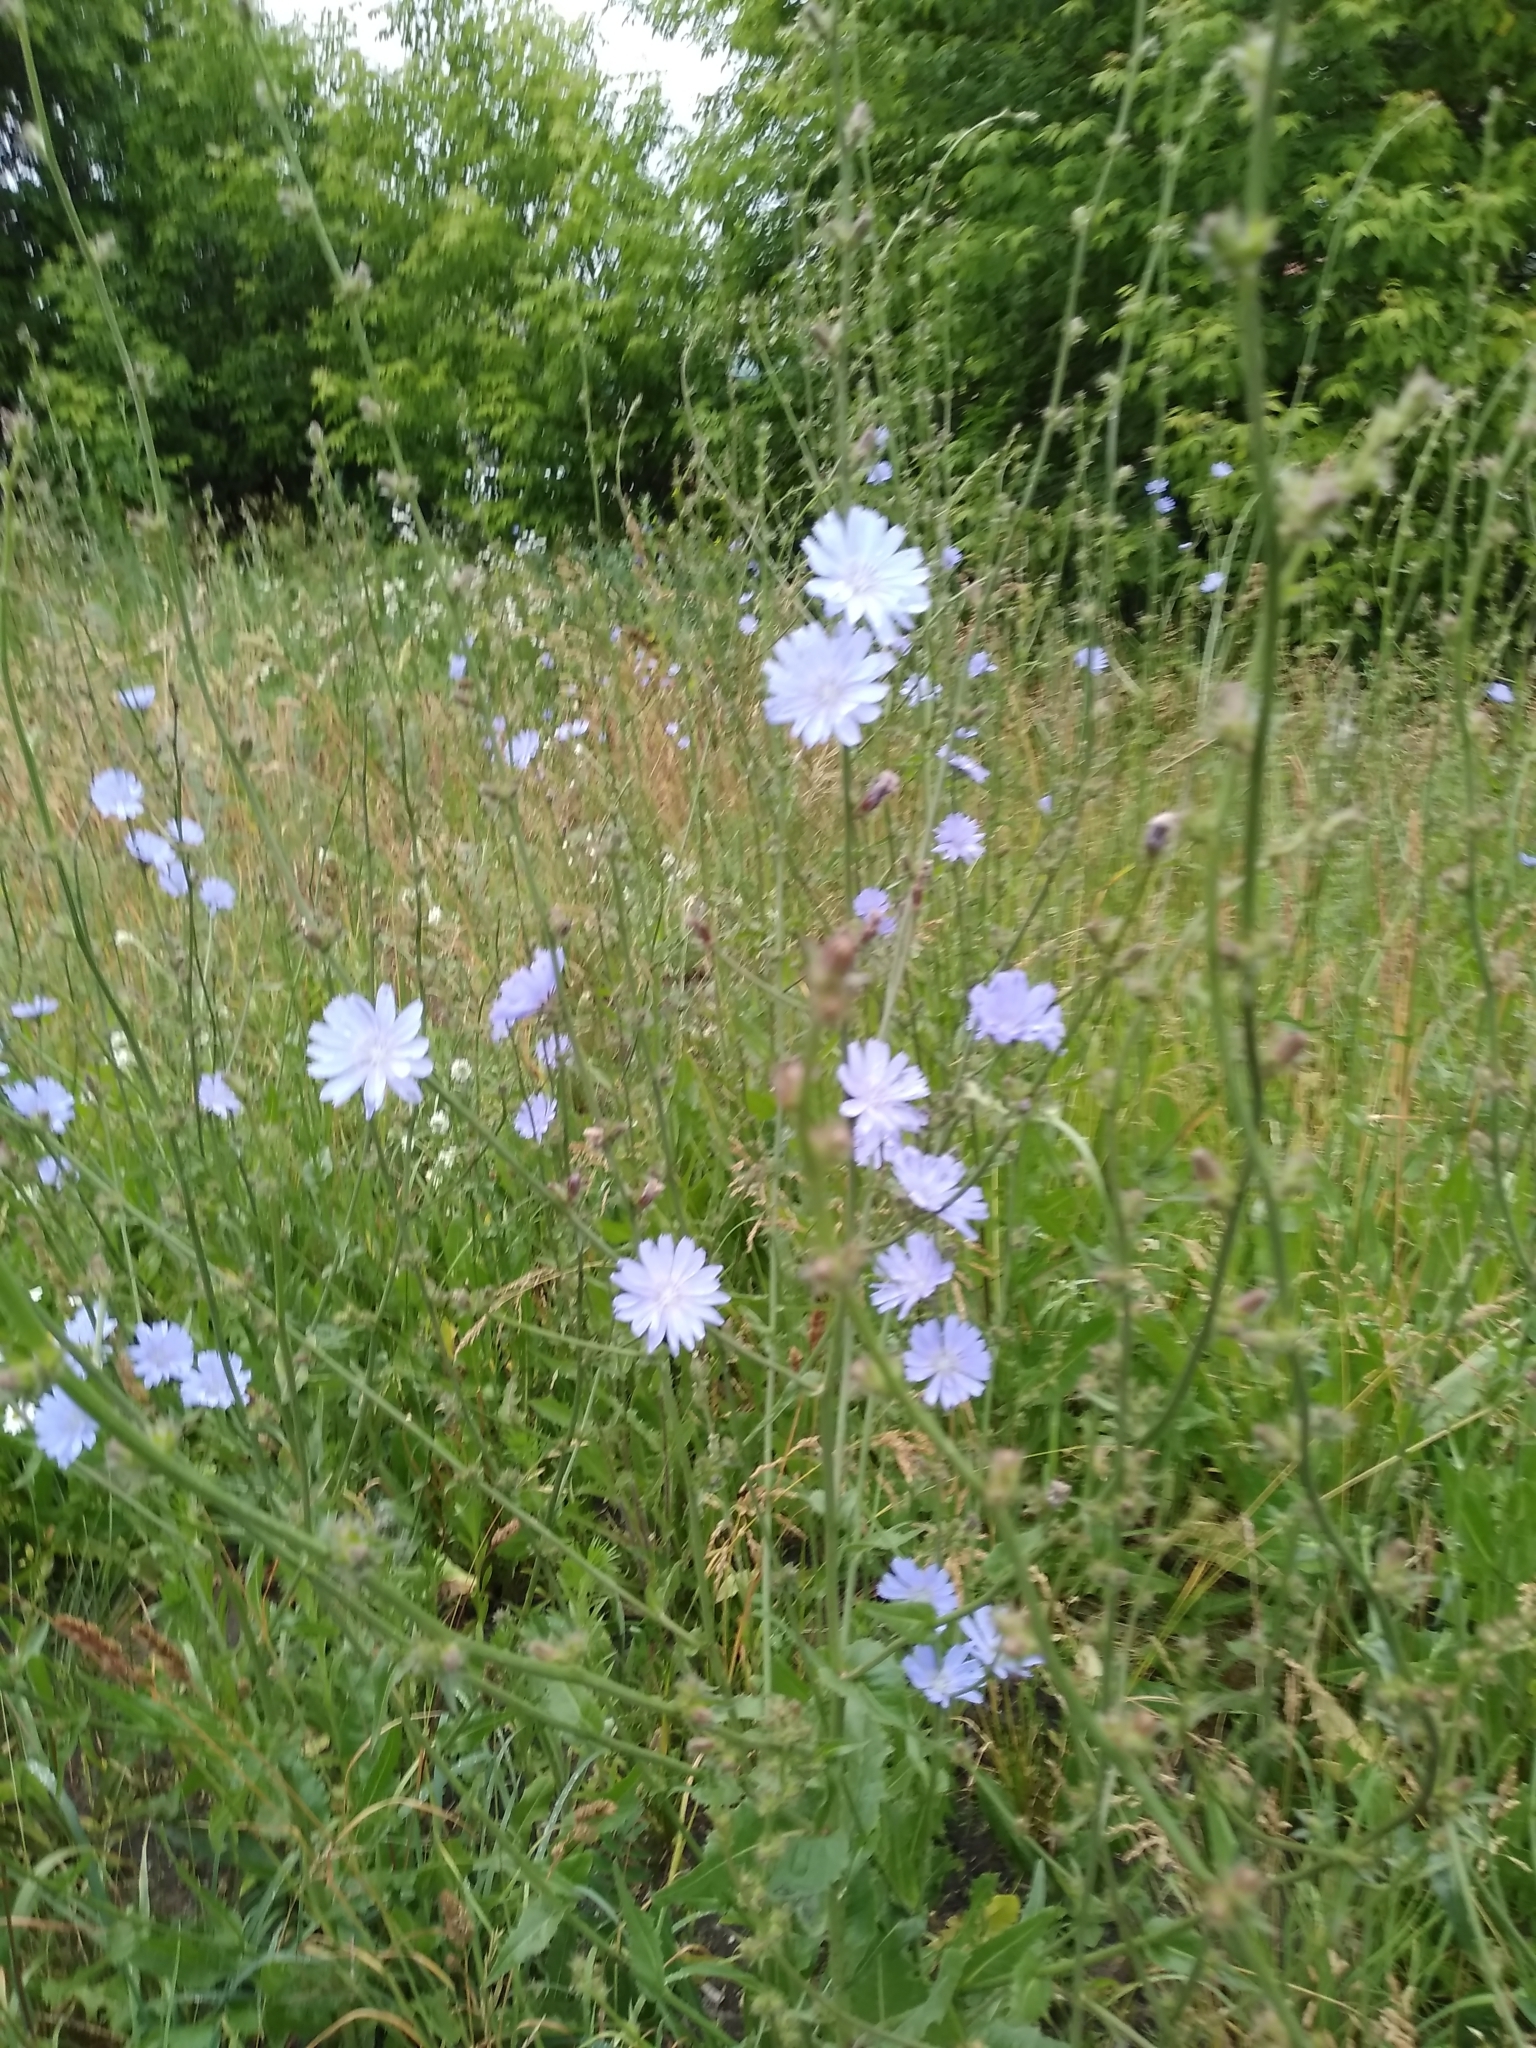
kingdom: Plantae
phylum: Tracheophyta
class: Magnoliopsida
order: Asterales
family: Asteraceae
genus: Cichorium
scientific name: Cichorium intybus
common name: Chicory
